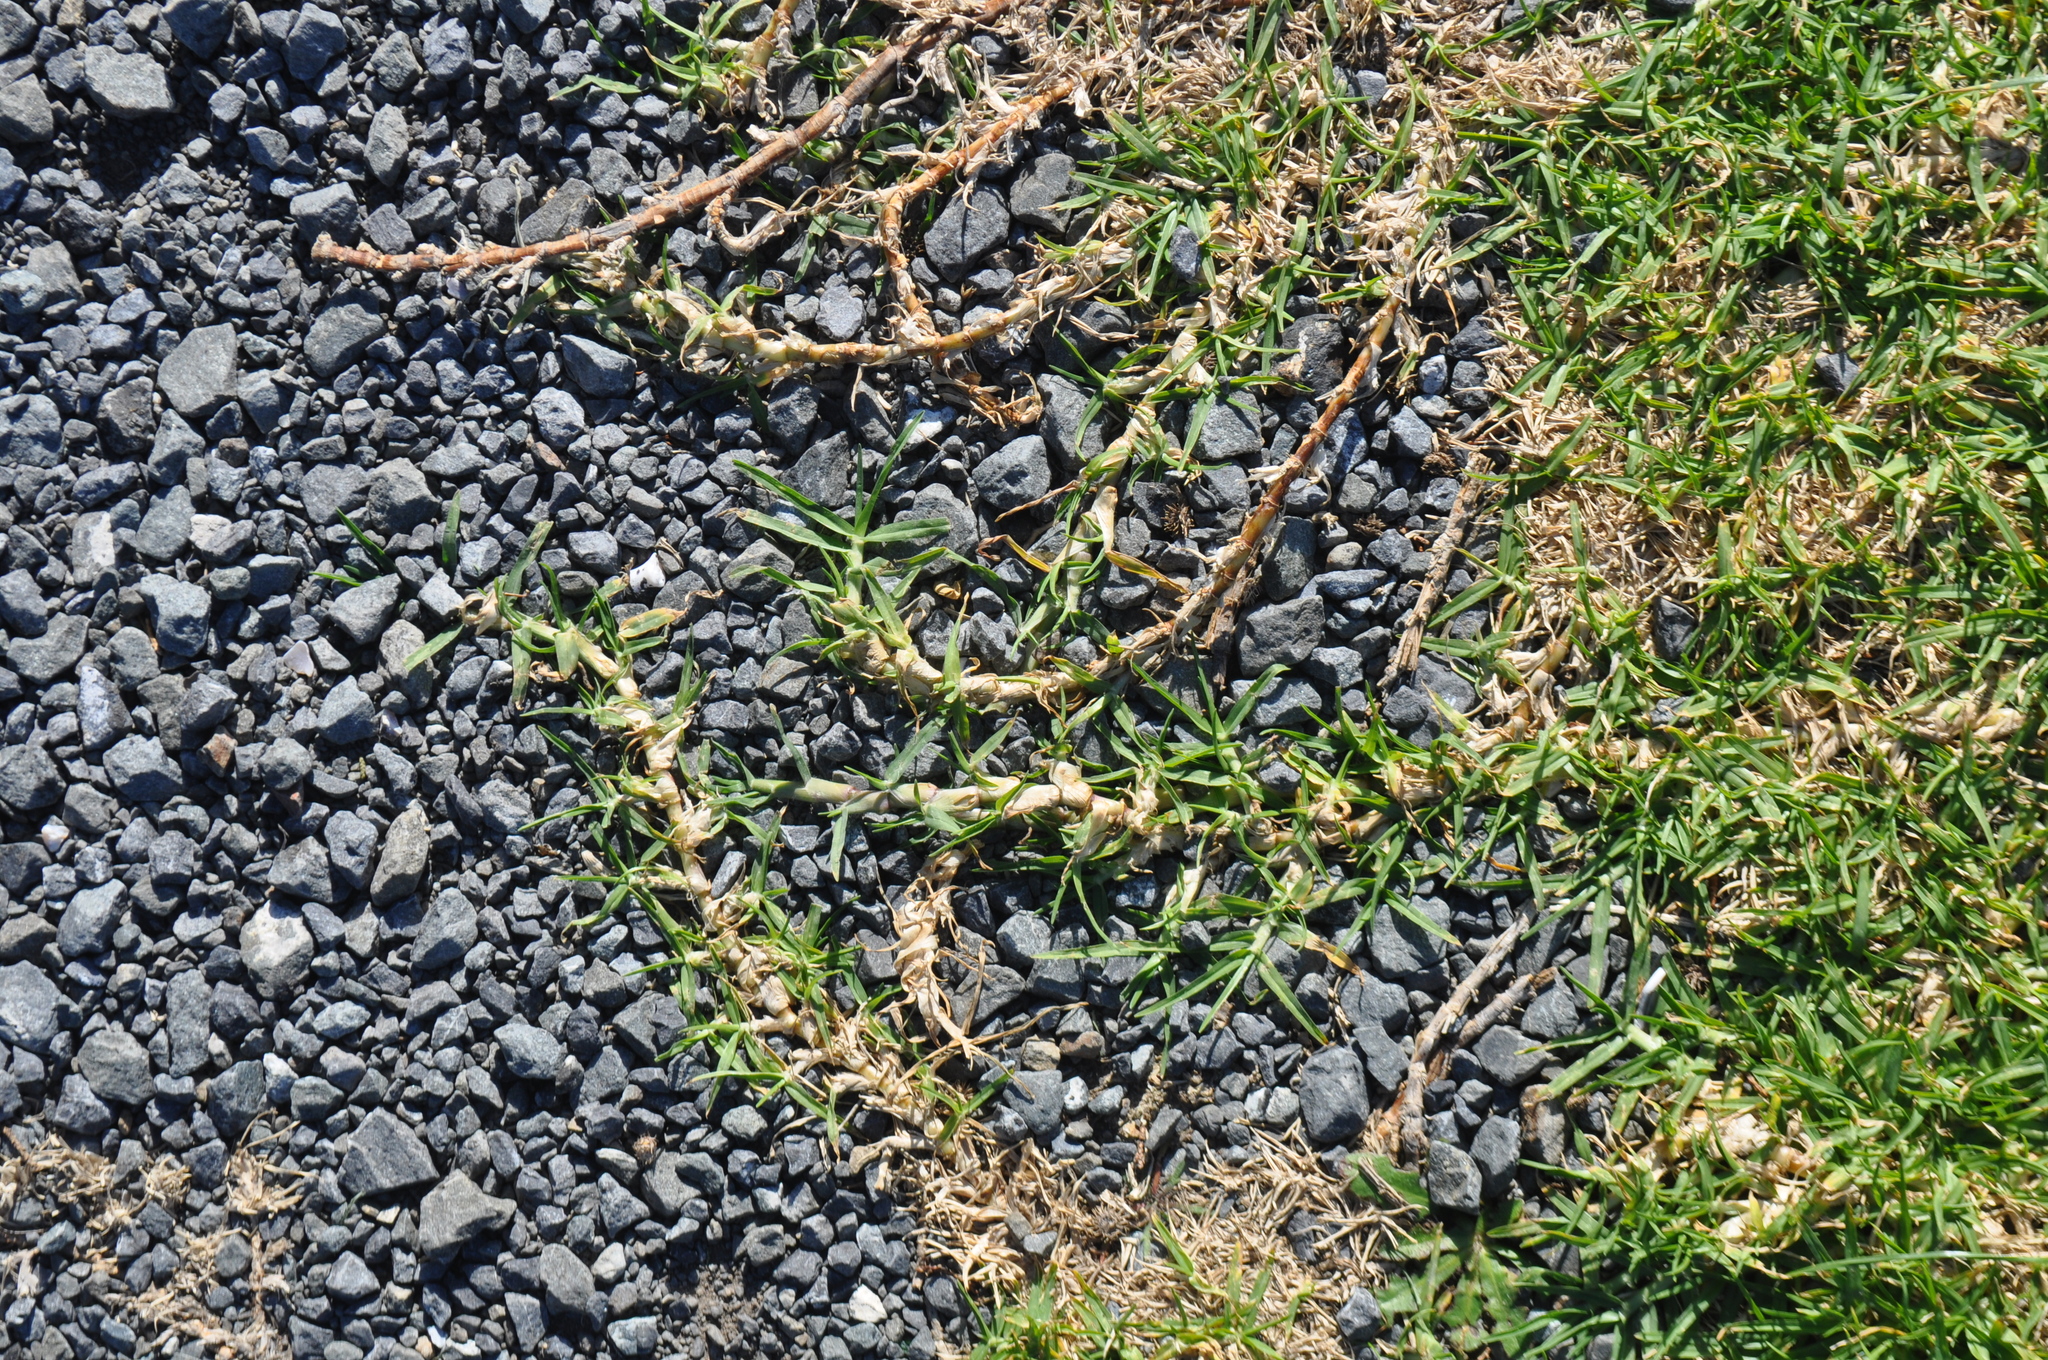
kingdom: Plantae
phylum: Tracheophyta
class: Liliopsida
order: Poales
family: Poaceae
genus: Cenchrus
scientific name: Cenchrus clandestinus
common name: Kikuyugrass
